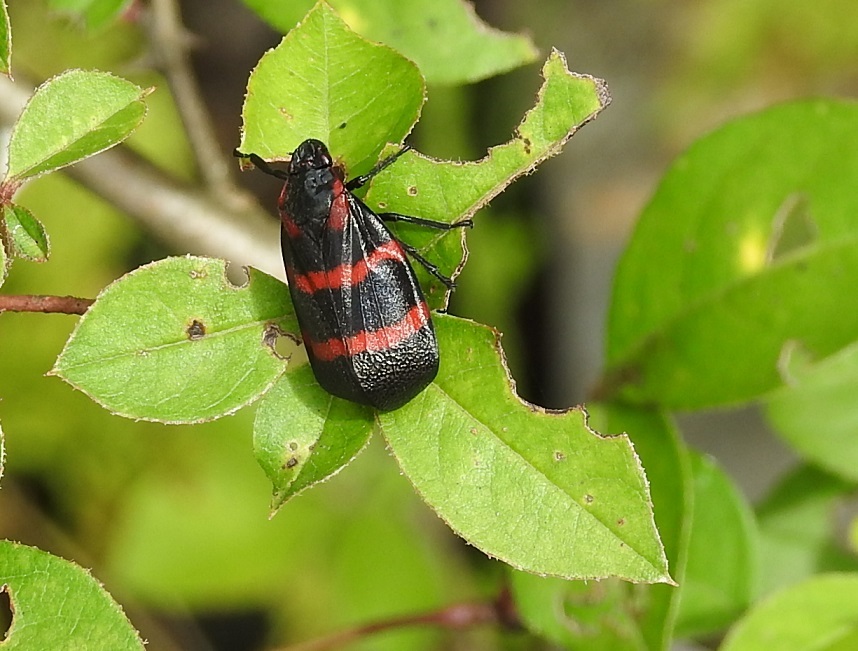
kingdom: Animalia
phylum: Arthropoda
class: Insecta
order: Hemiptera
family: Cercopidae
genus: Huaina
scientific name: Huaina inca
